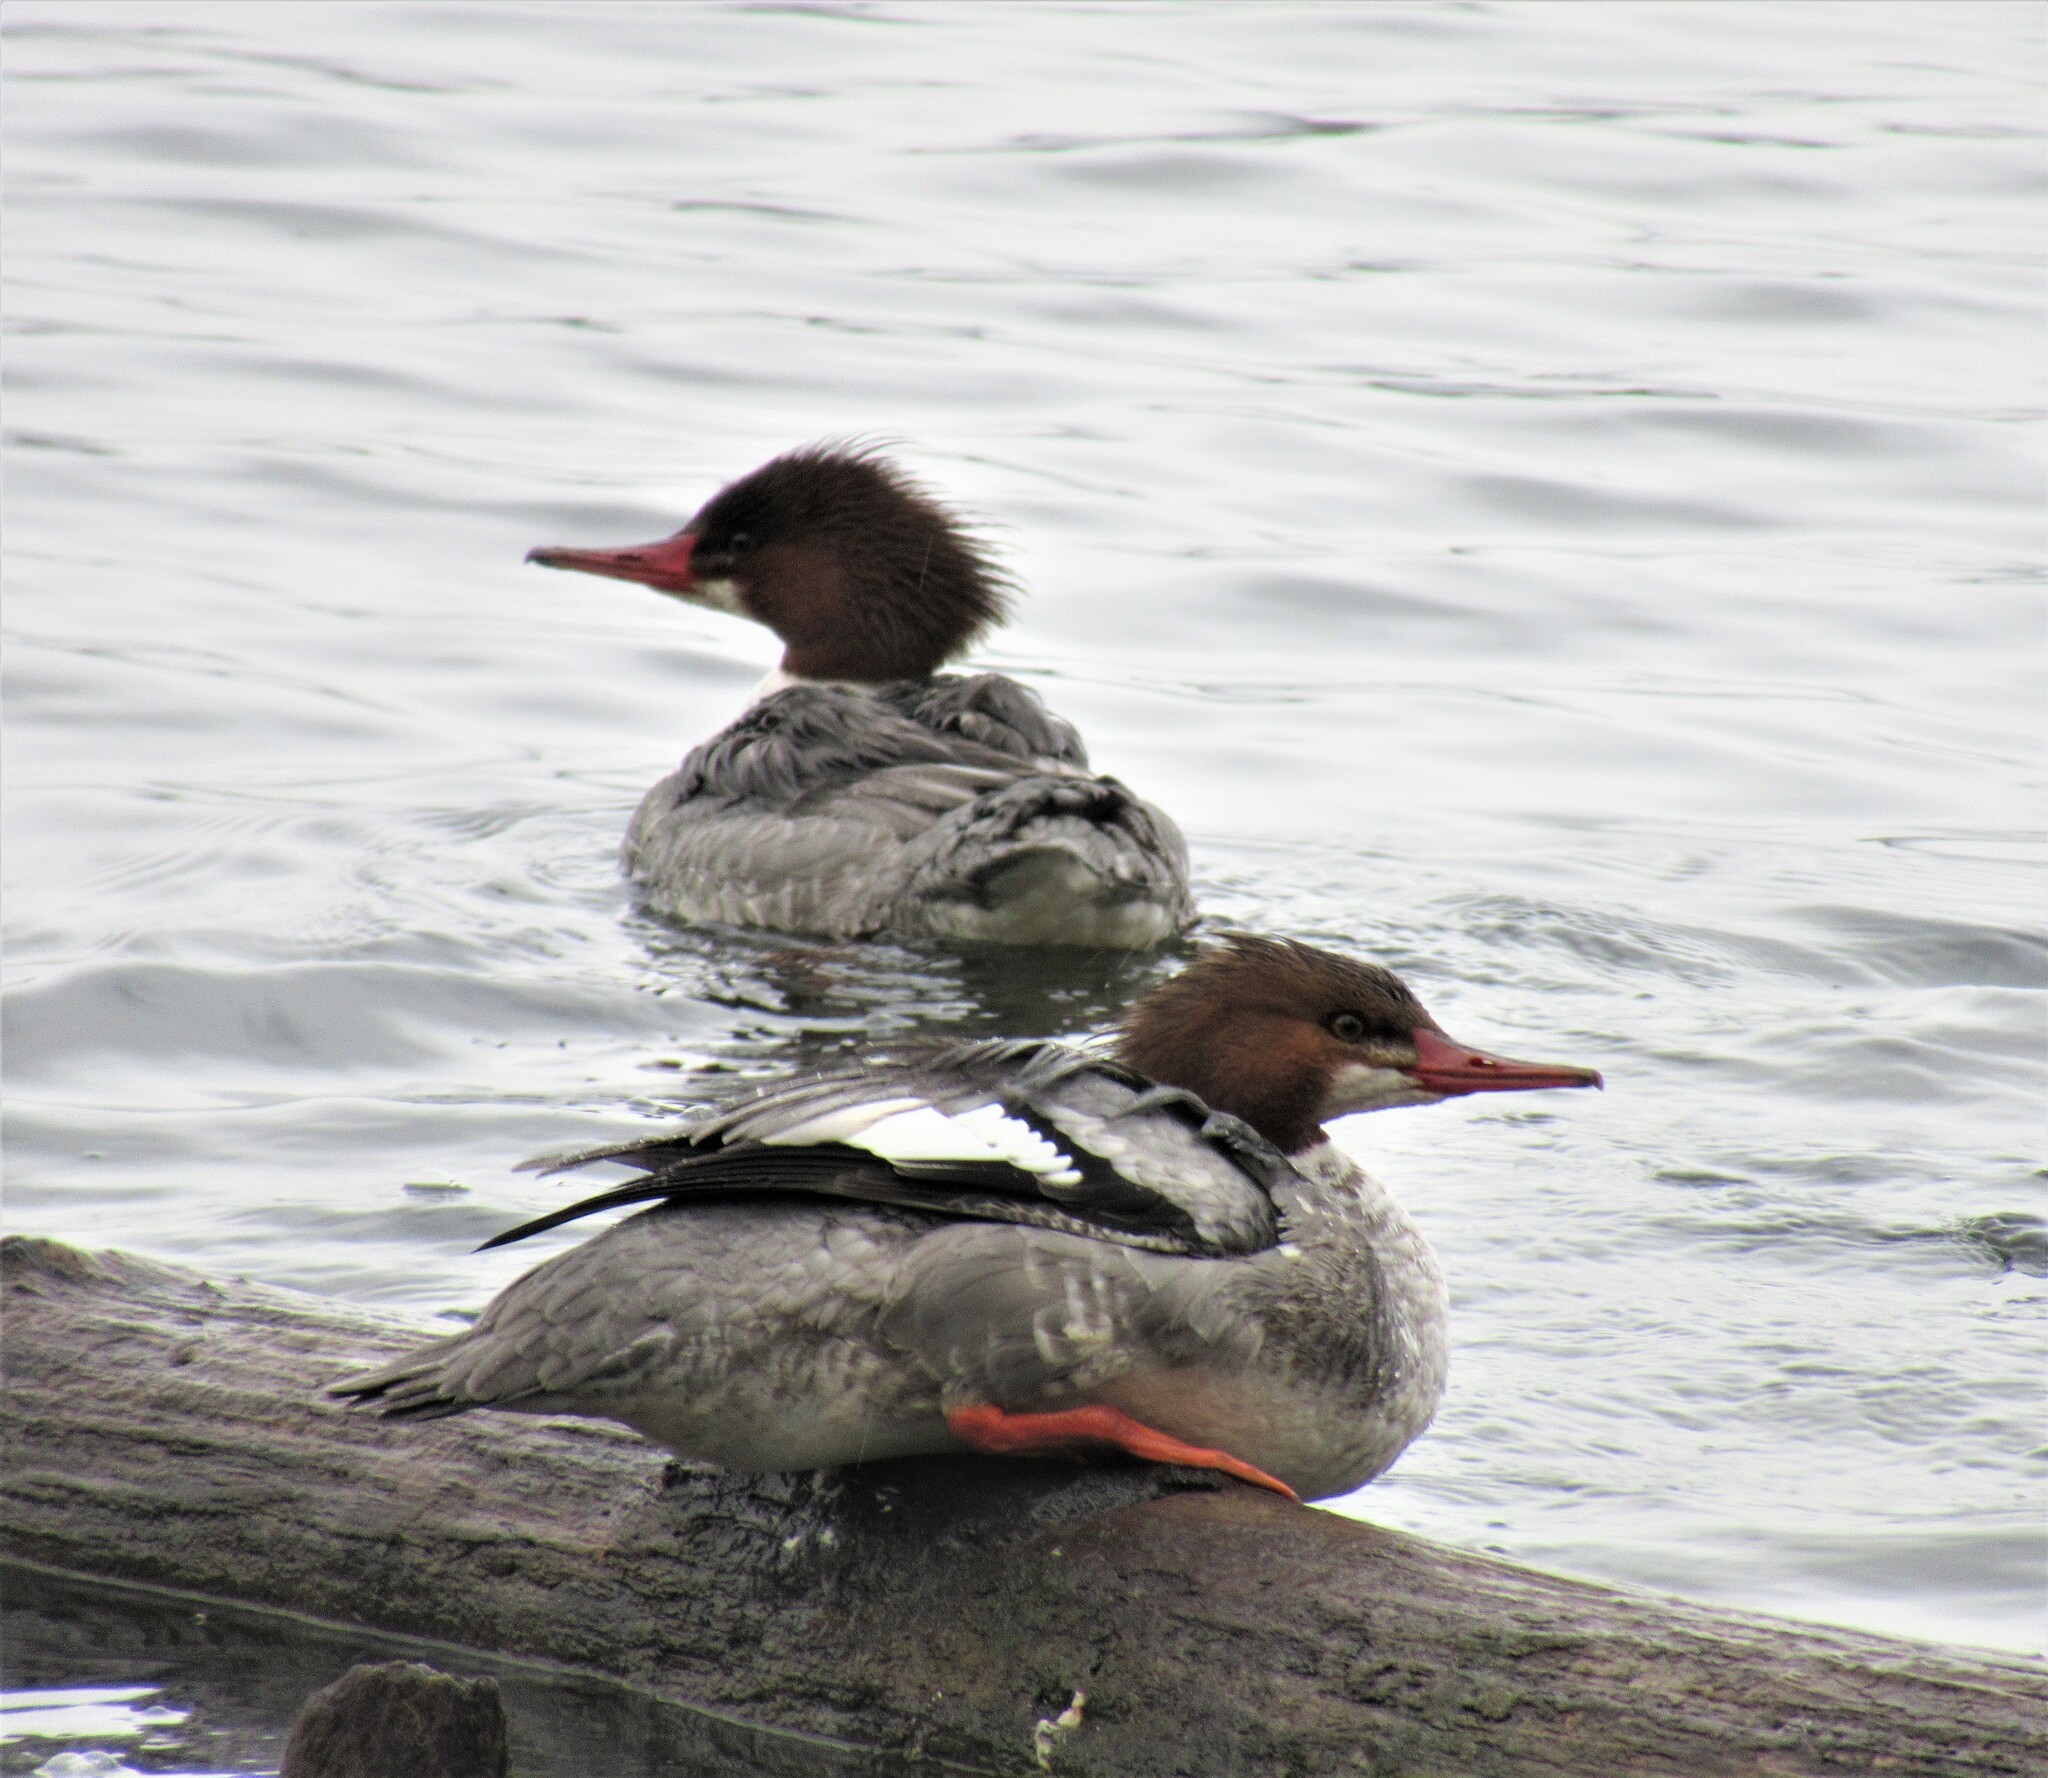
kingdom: Animalia
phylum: Chordata
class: Aves
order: Anseriformes
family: Anatidae
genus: Mergus
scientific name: Mergus merganser
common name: Common merganser
